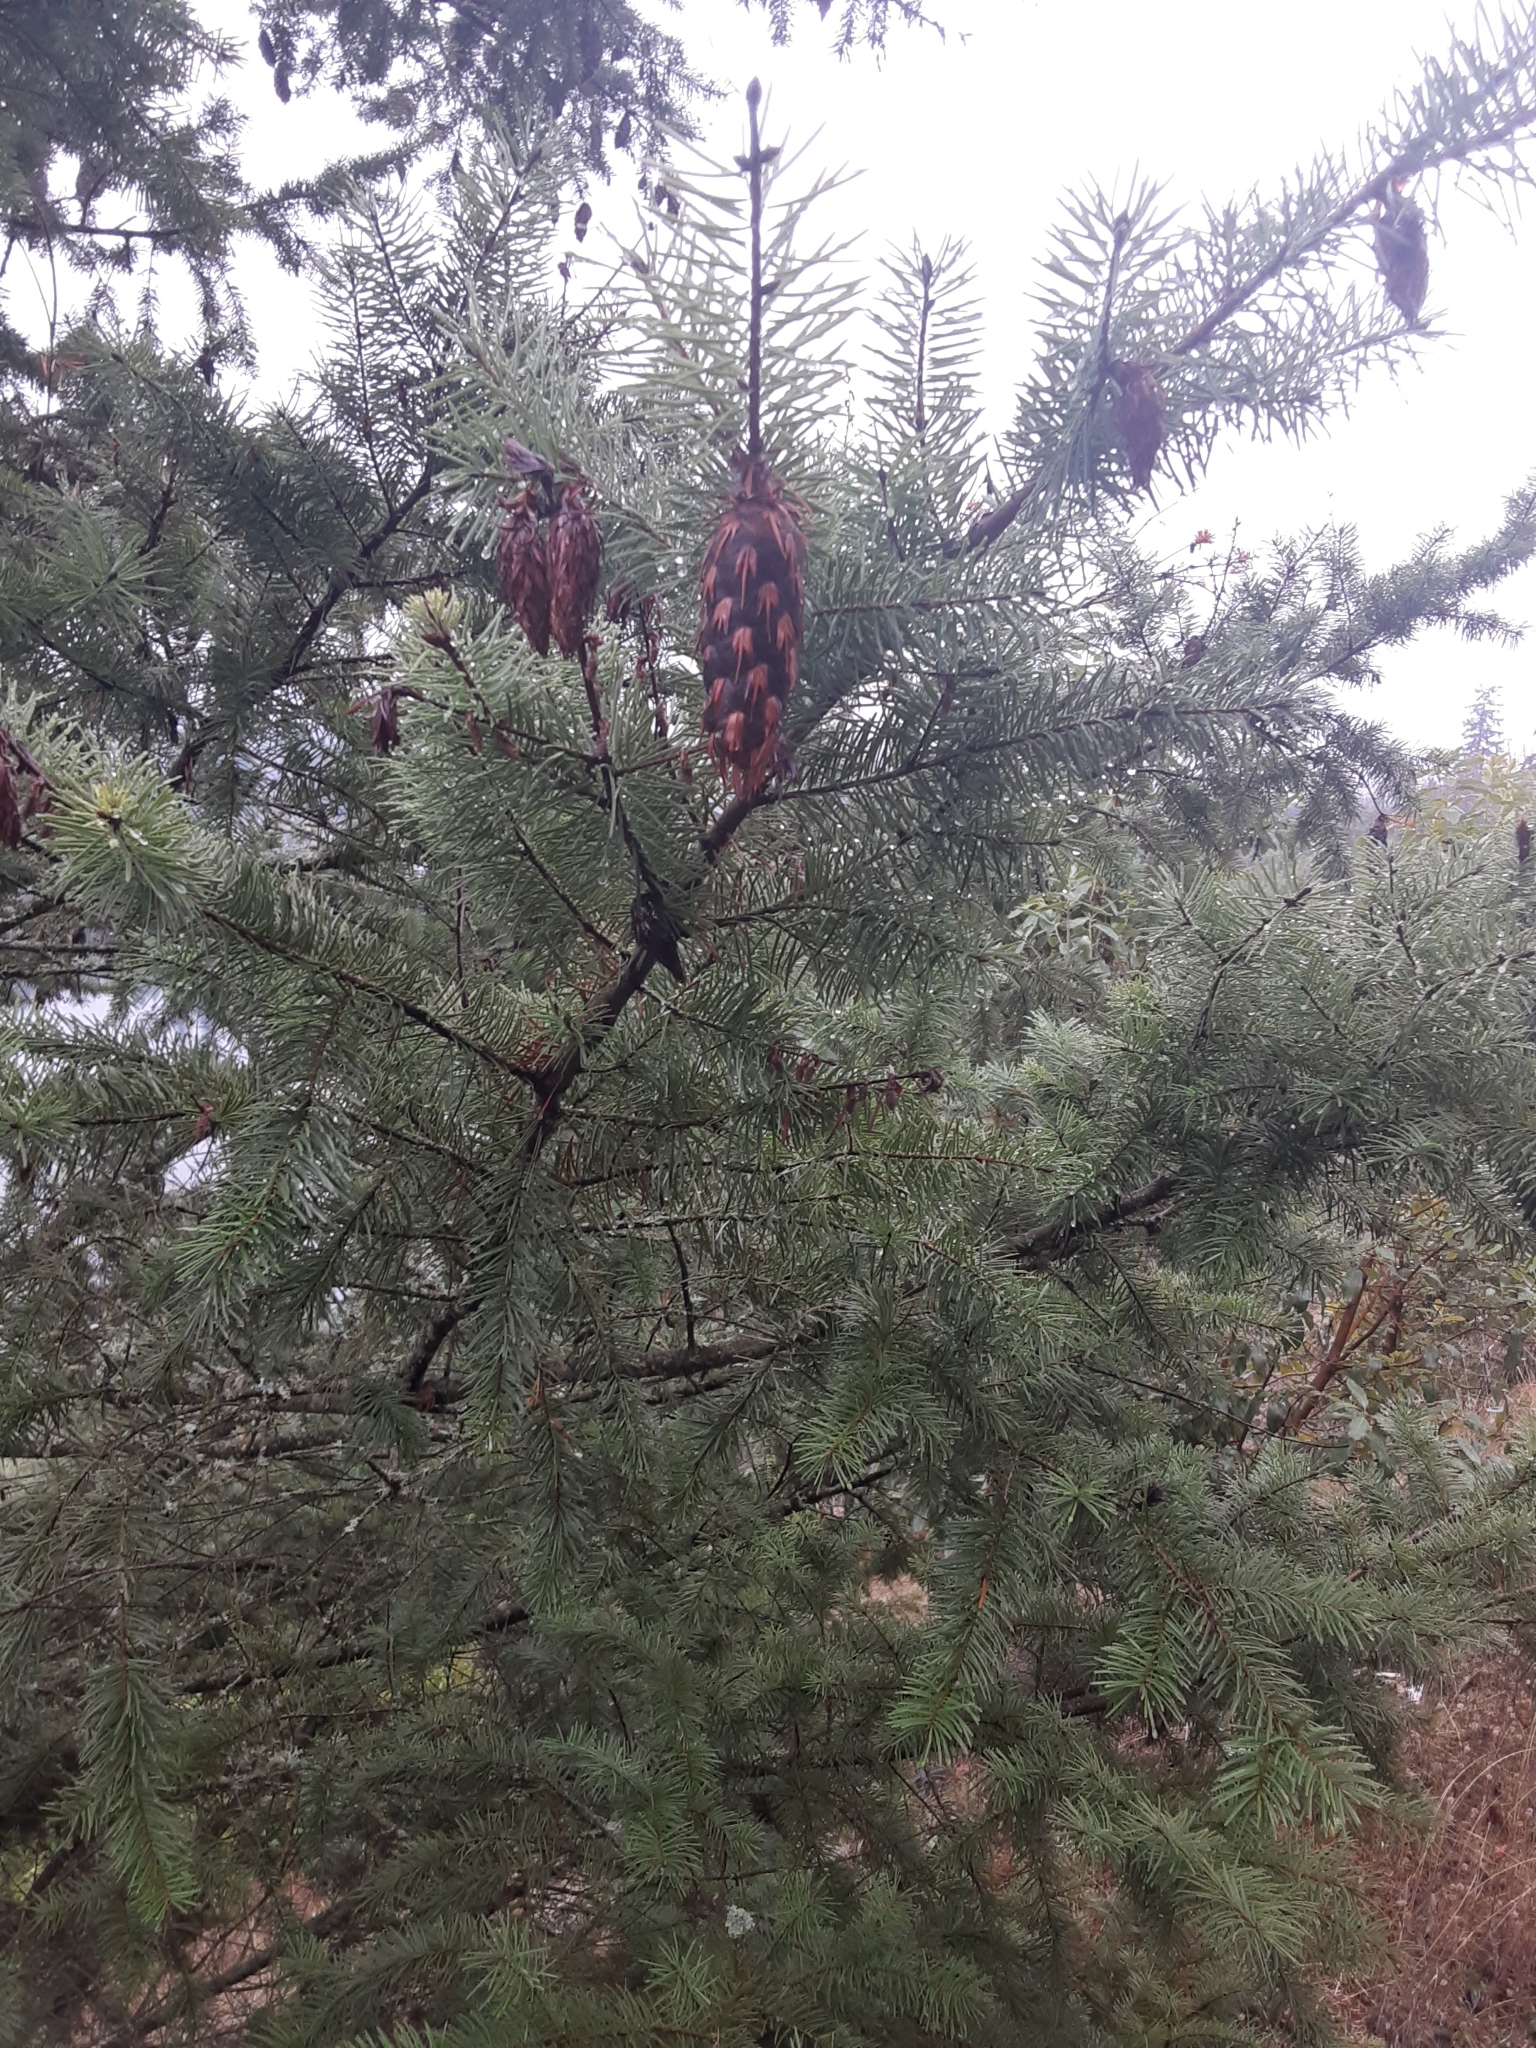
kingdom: Plantae
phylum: Tracheophyta
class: Pinopsida
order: Pinales
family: Pinaceae
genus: Pseudotsuga
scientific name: Pseudotsuga menziesii
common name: Douglas fir
